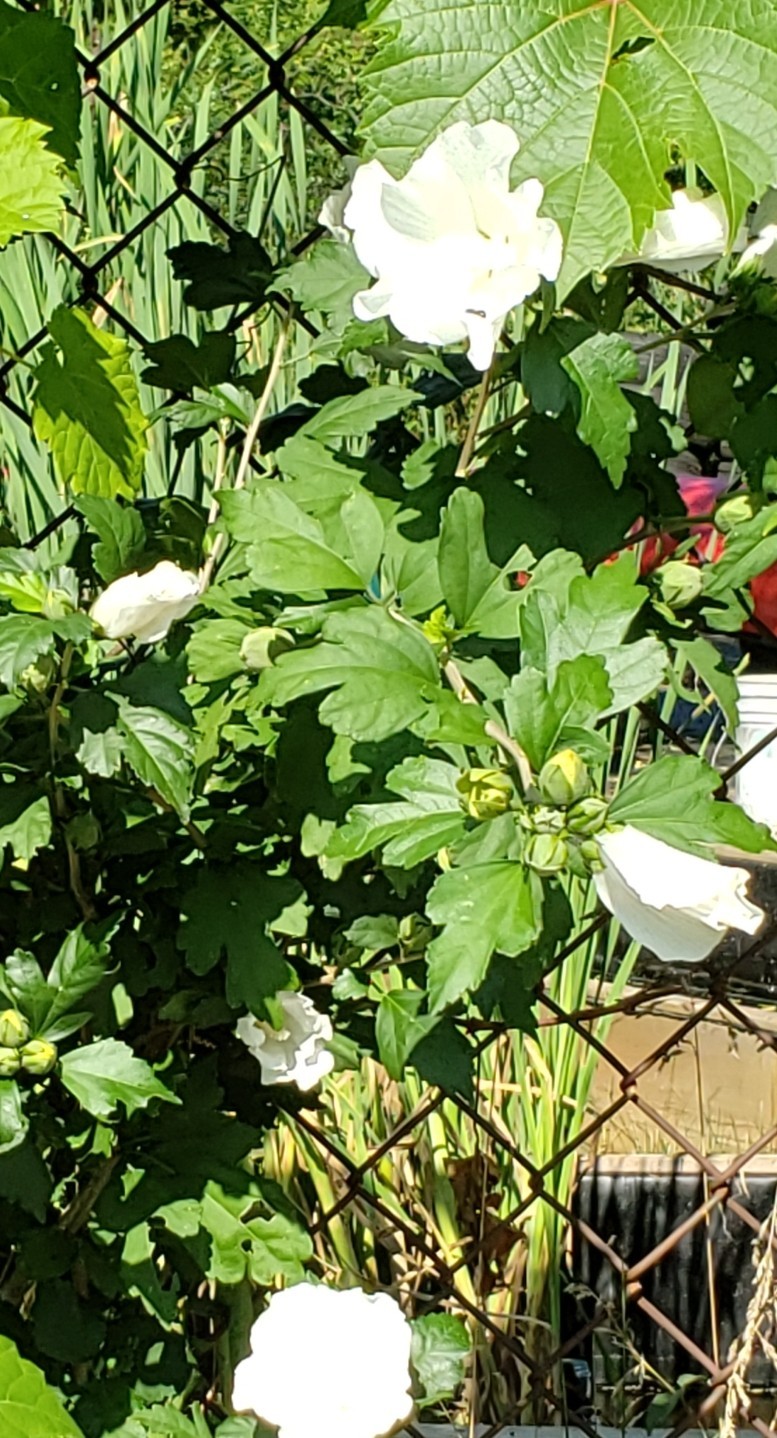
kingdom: Plantae
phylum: Tracheophyta
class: Magnoliopsida
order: Malvales
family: Malvaceae
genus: Hibiscus
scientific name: Hibiscus syriacus
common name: Syrian ketmia
